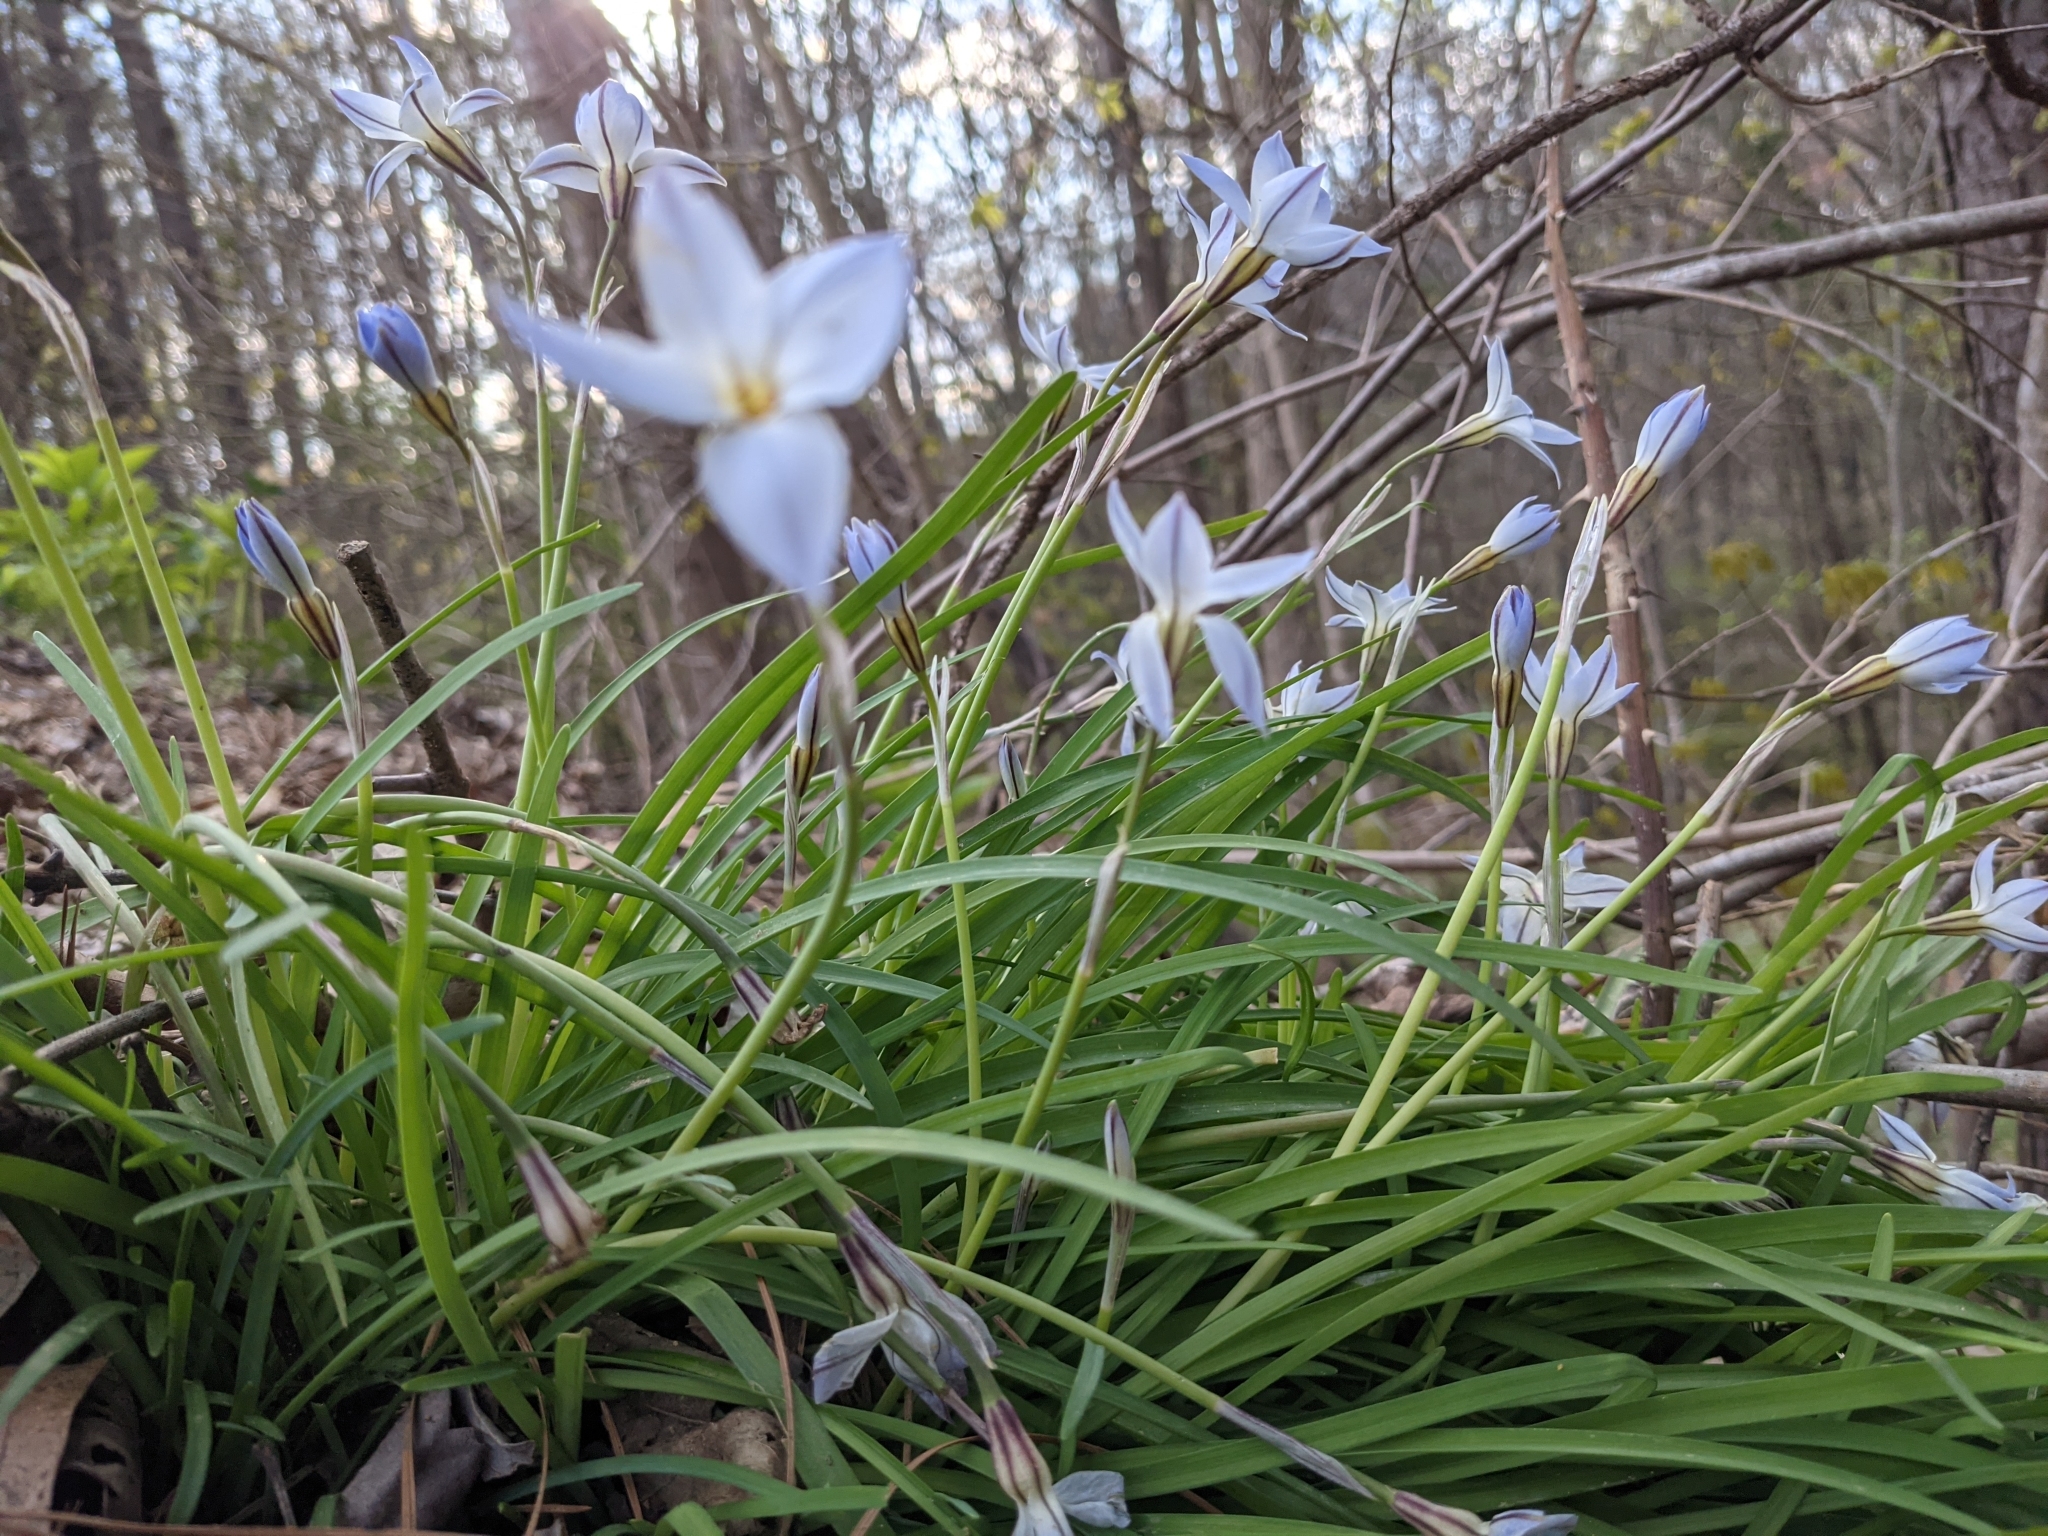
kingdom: Plantae
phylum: Tracheophyta
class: Liliopsida
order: Asparagales
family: Amaryllidaceae
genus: Ipheion
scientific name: Ipheion uniflorum
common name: Spring starflower
